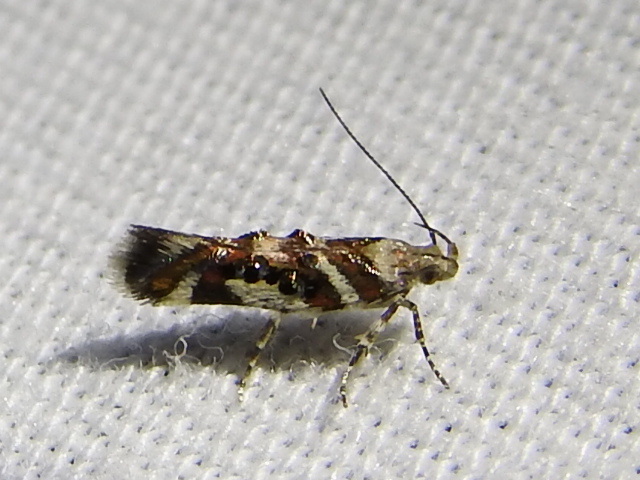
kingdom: Animalia
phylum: Arthropoda
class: Insecta
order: Lepidoptera
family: Gelechiidae
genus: Aristotelia
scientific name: Aristotelia elegantella
